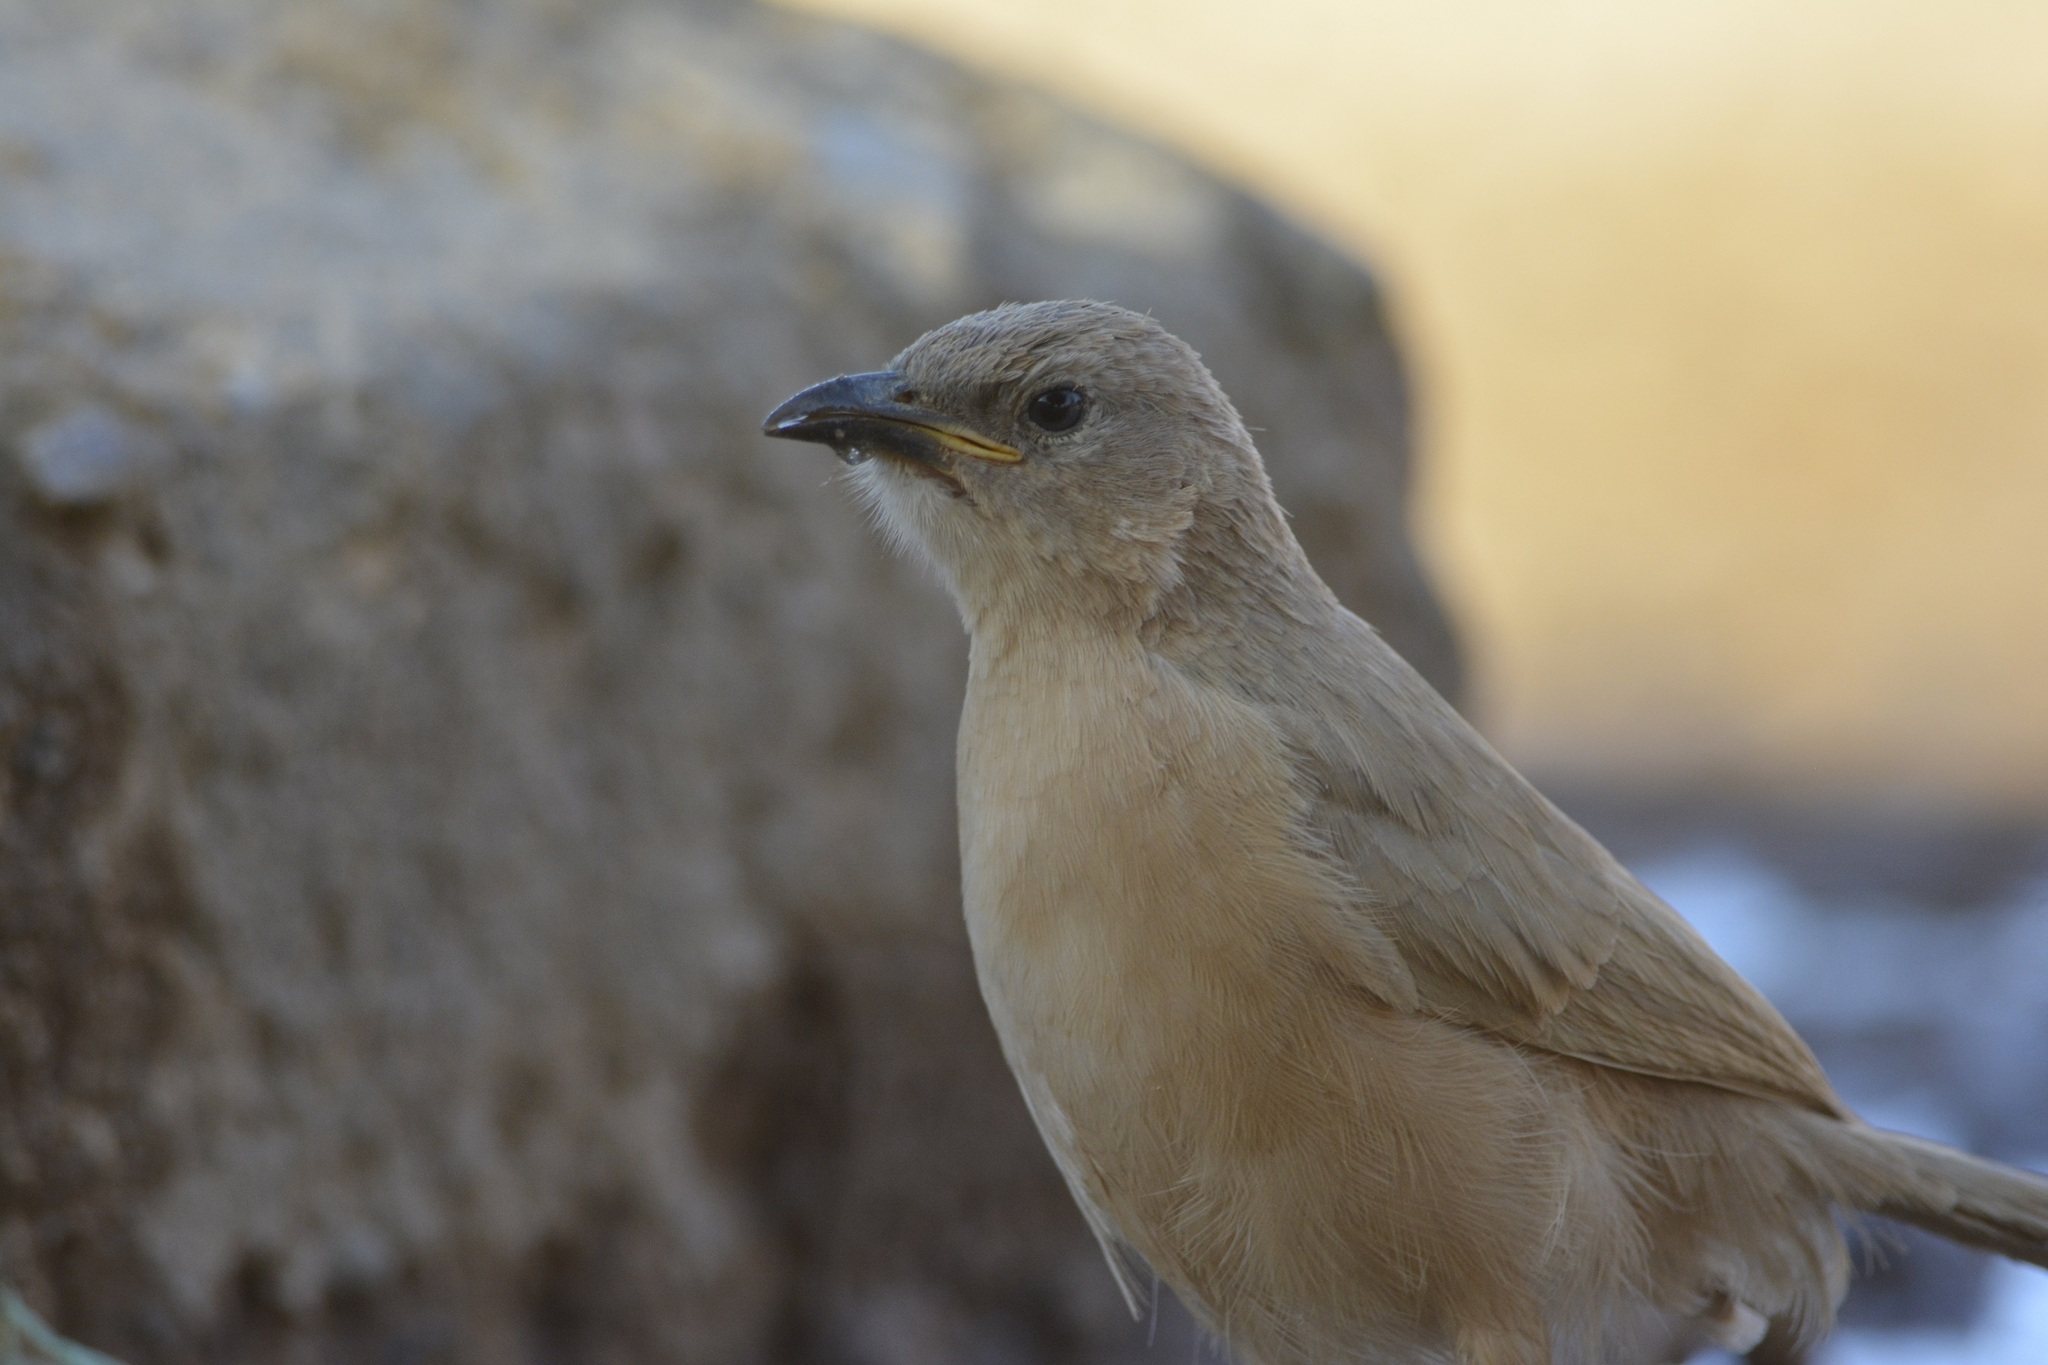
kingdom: Animalia
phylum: Chordata
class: Aves
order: Passeriformes
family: Leiothrichidae
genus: Turdoides
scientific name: Turdoides fulva
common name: Fulvous babbler
